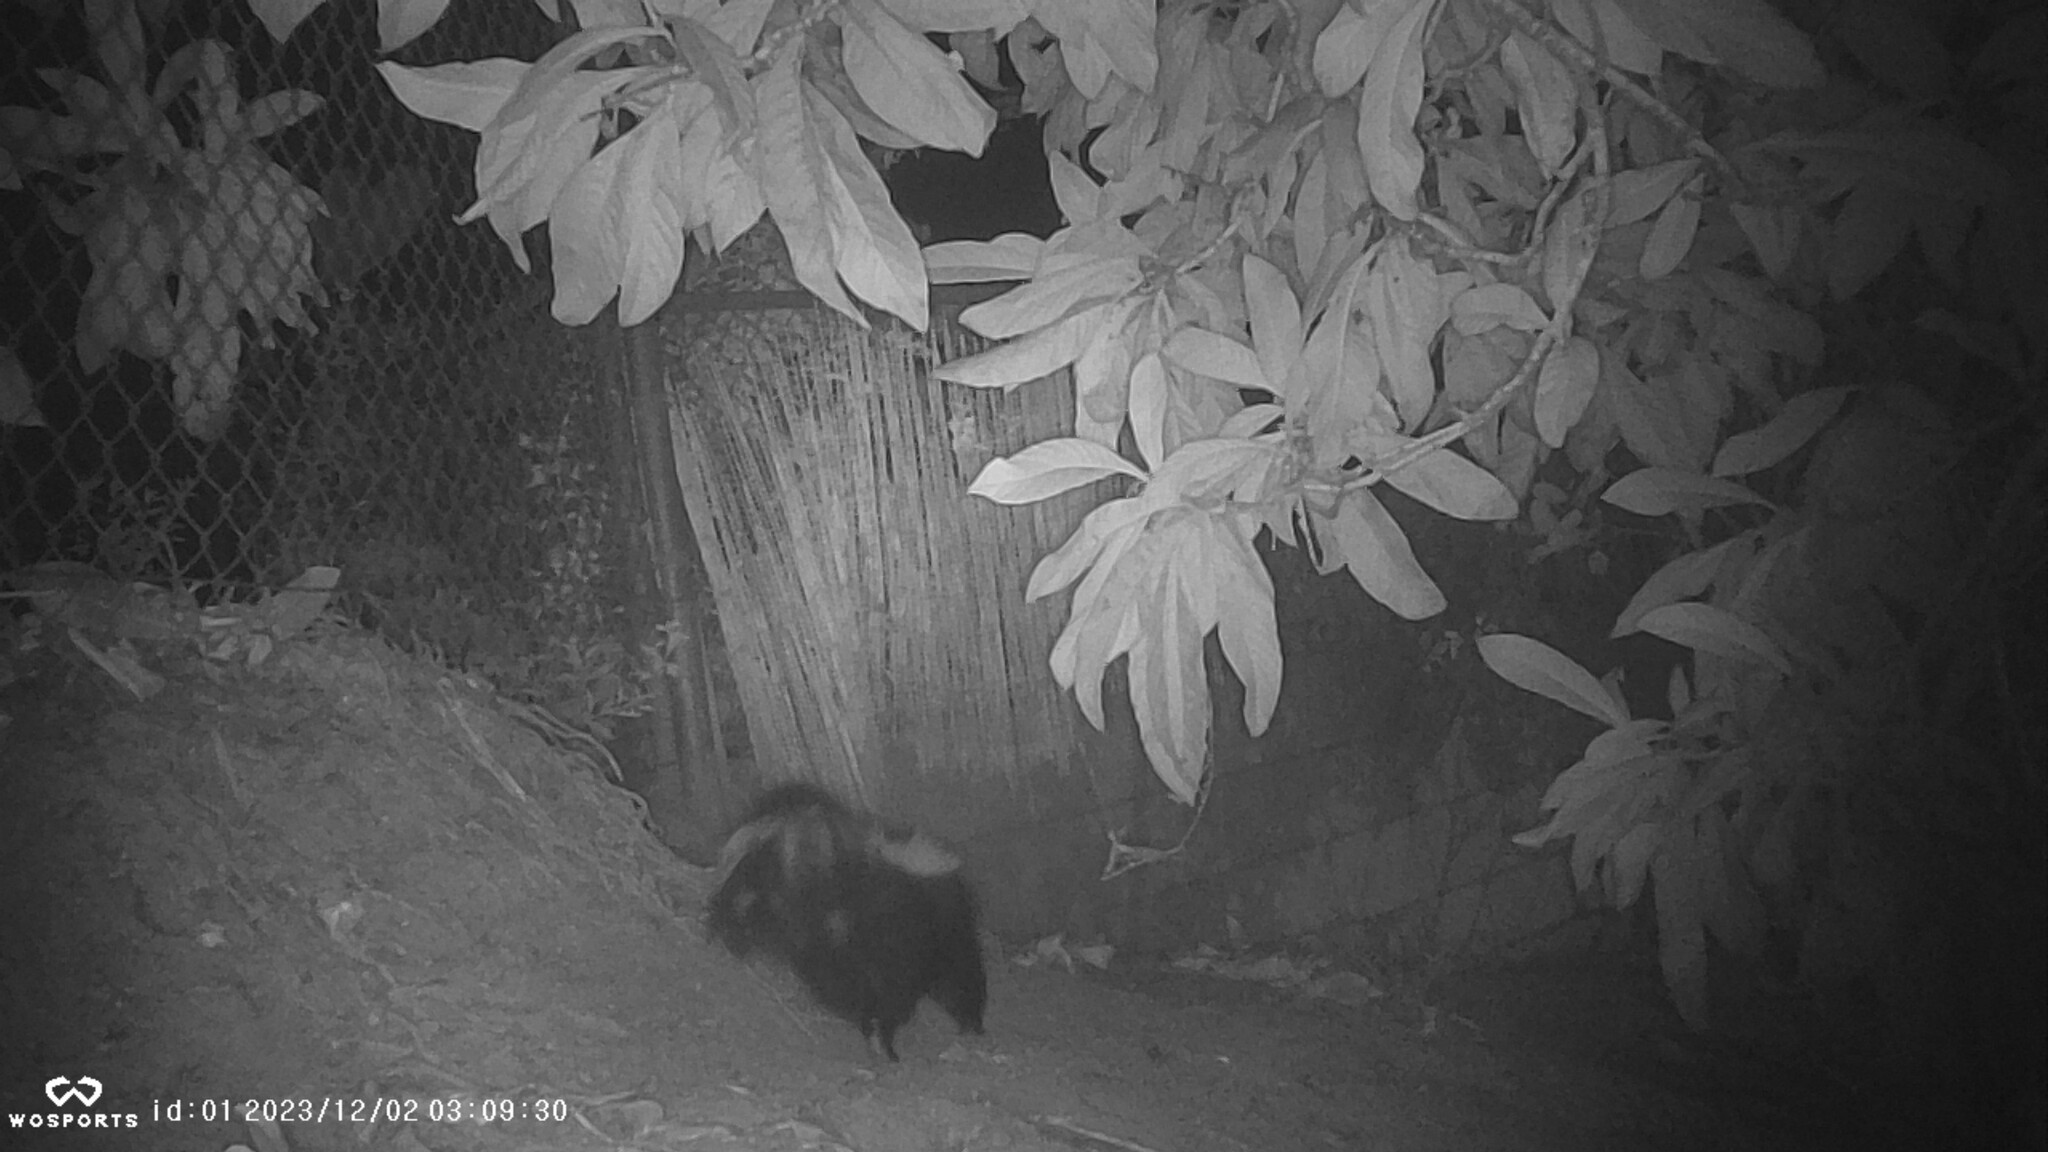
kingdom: Animalia
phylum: Chordata
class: Mammalia
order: Carnivora
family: Mephitidae
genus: Mephitis
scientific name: Mephitis mephitis
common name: Striped skunk
